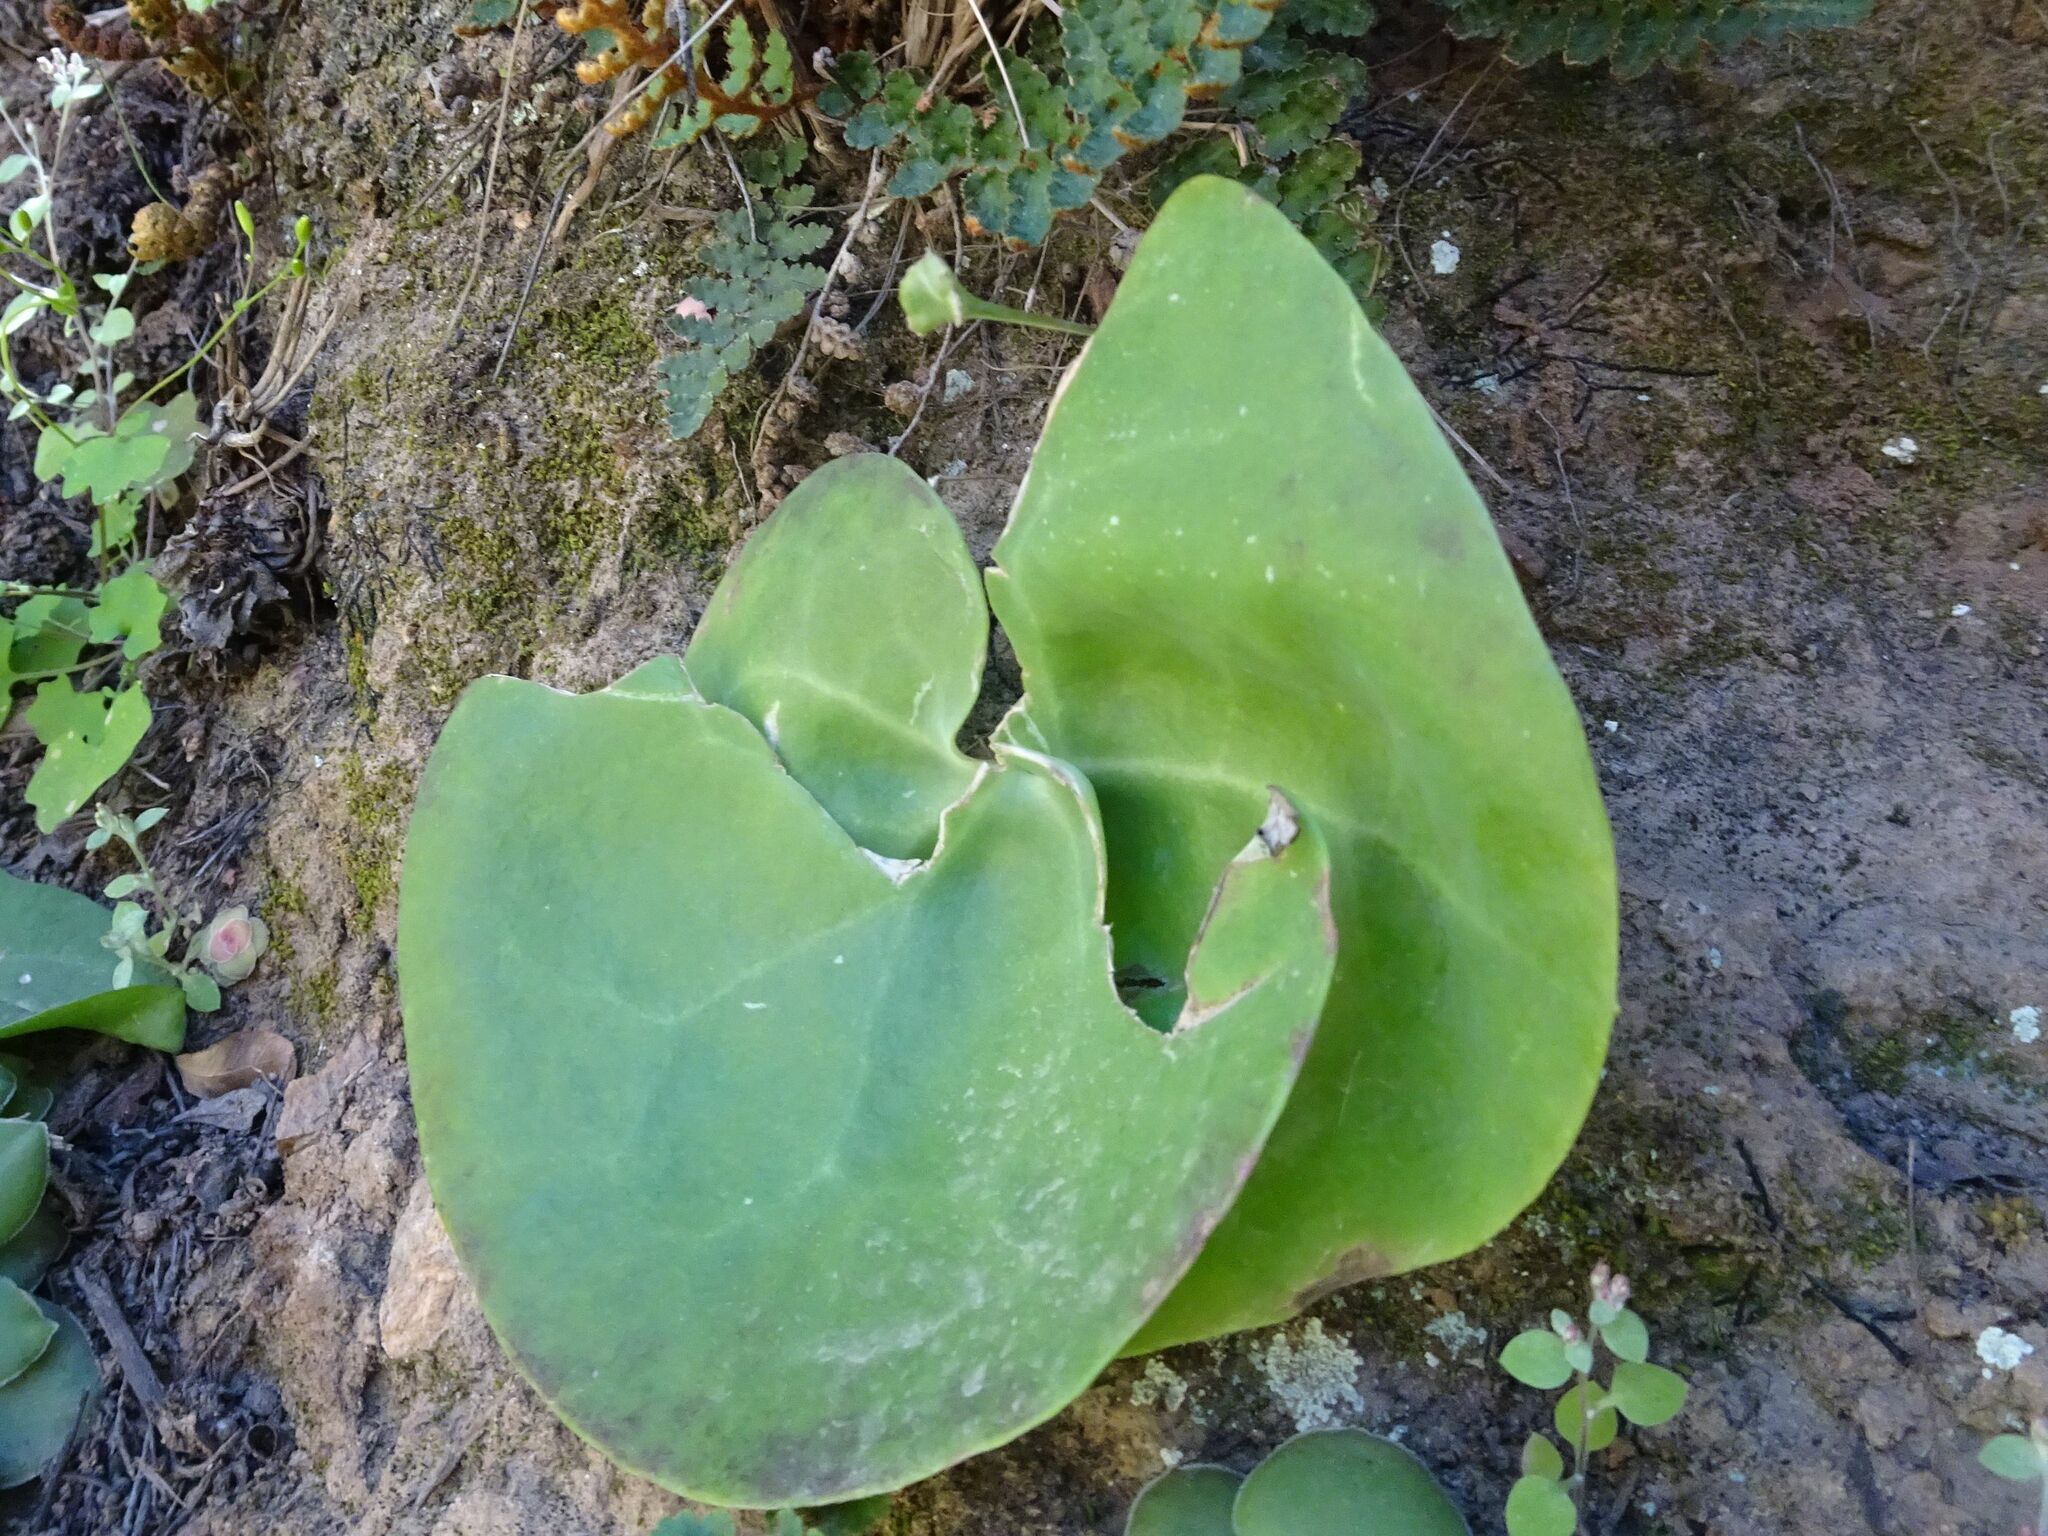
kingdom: Plantae
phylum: Tracheophyta
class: Magnoliopsida
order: Asterales
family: Asteraceae
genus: Othonna
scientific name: Othonna undulosa
